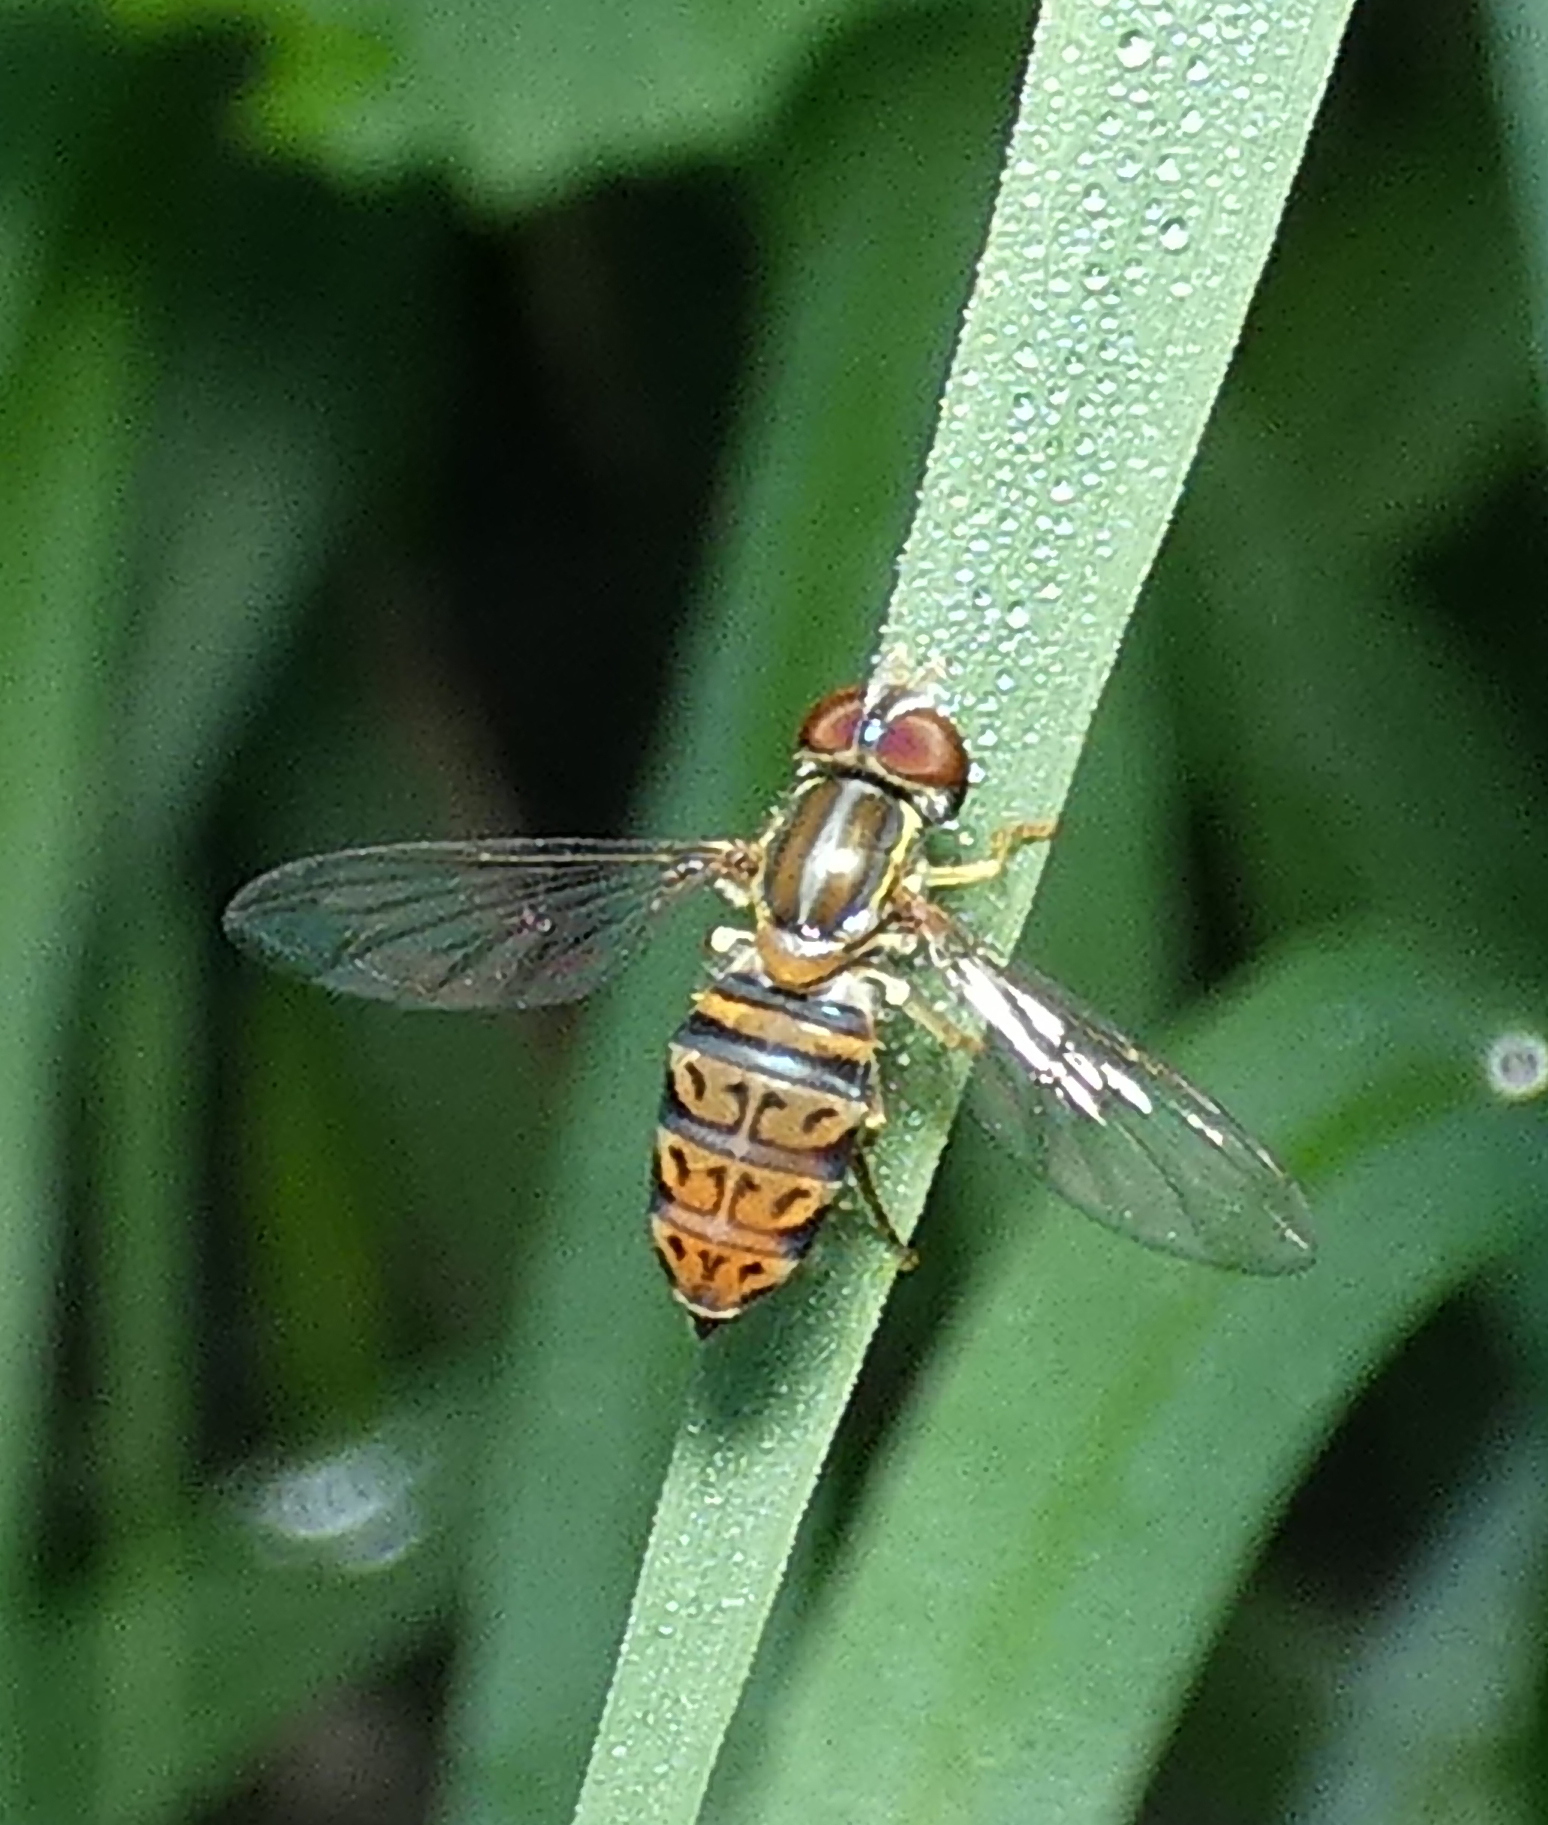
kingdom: Animalia
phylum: Arthropoda
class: Insecta
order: Diptera
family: Syrphidae
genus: Toxomerus
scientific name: Toxomerus pulchellus
